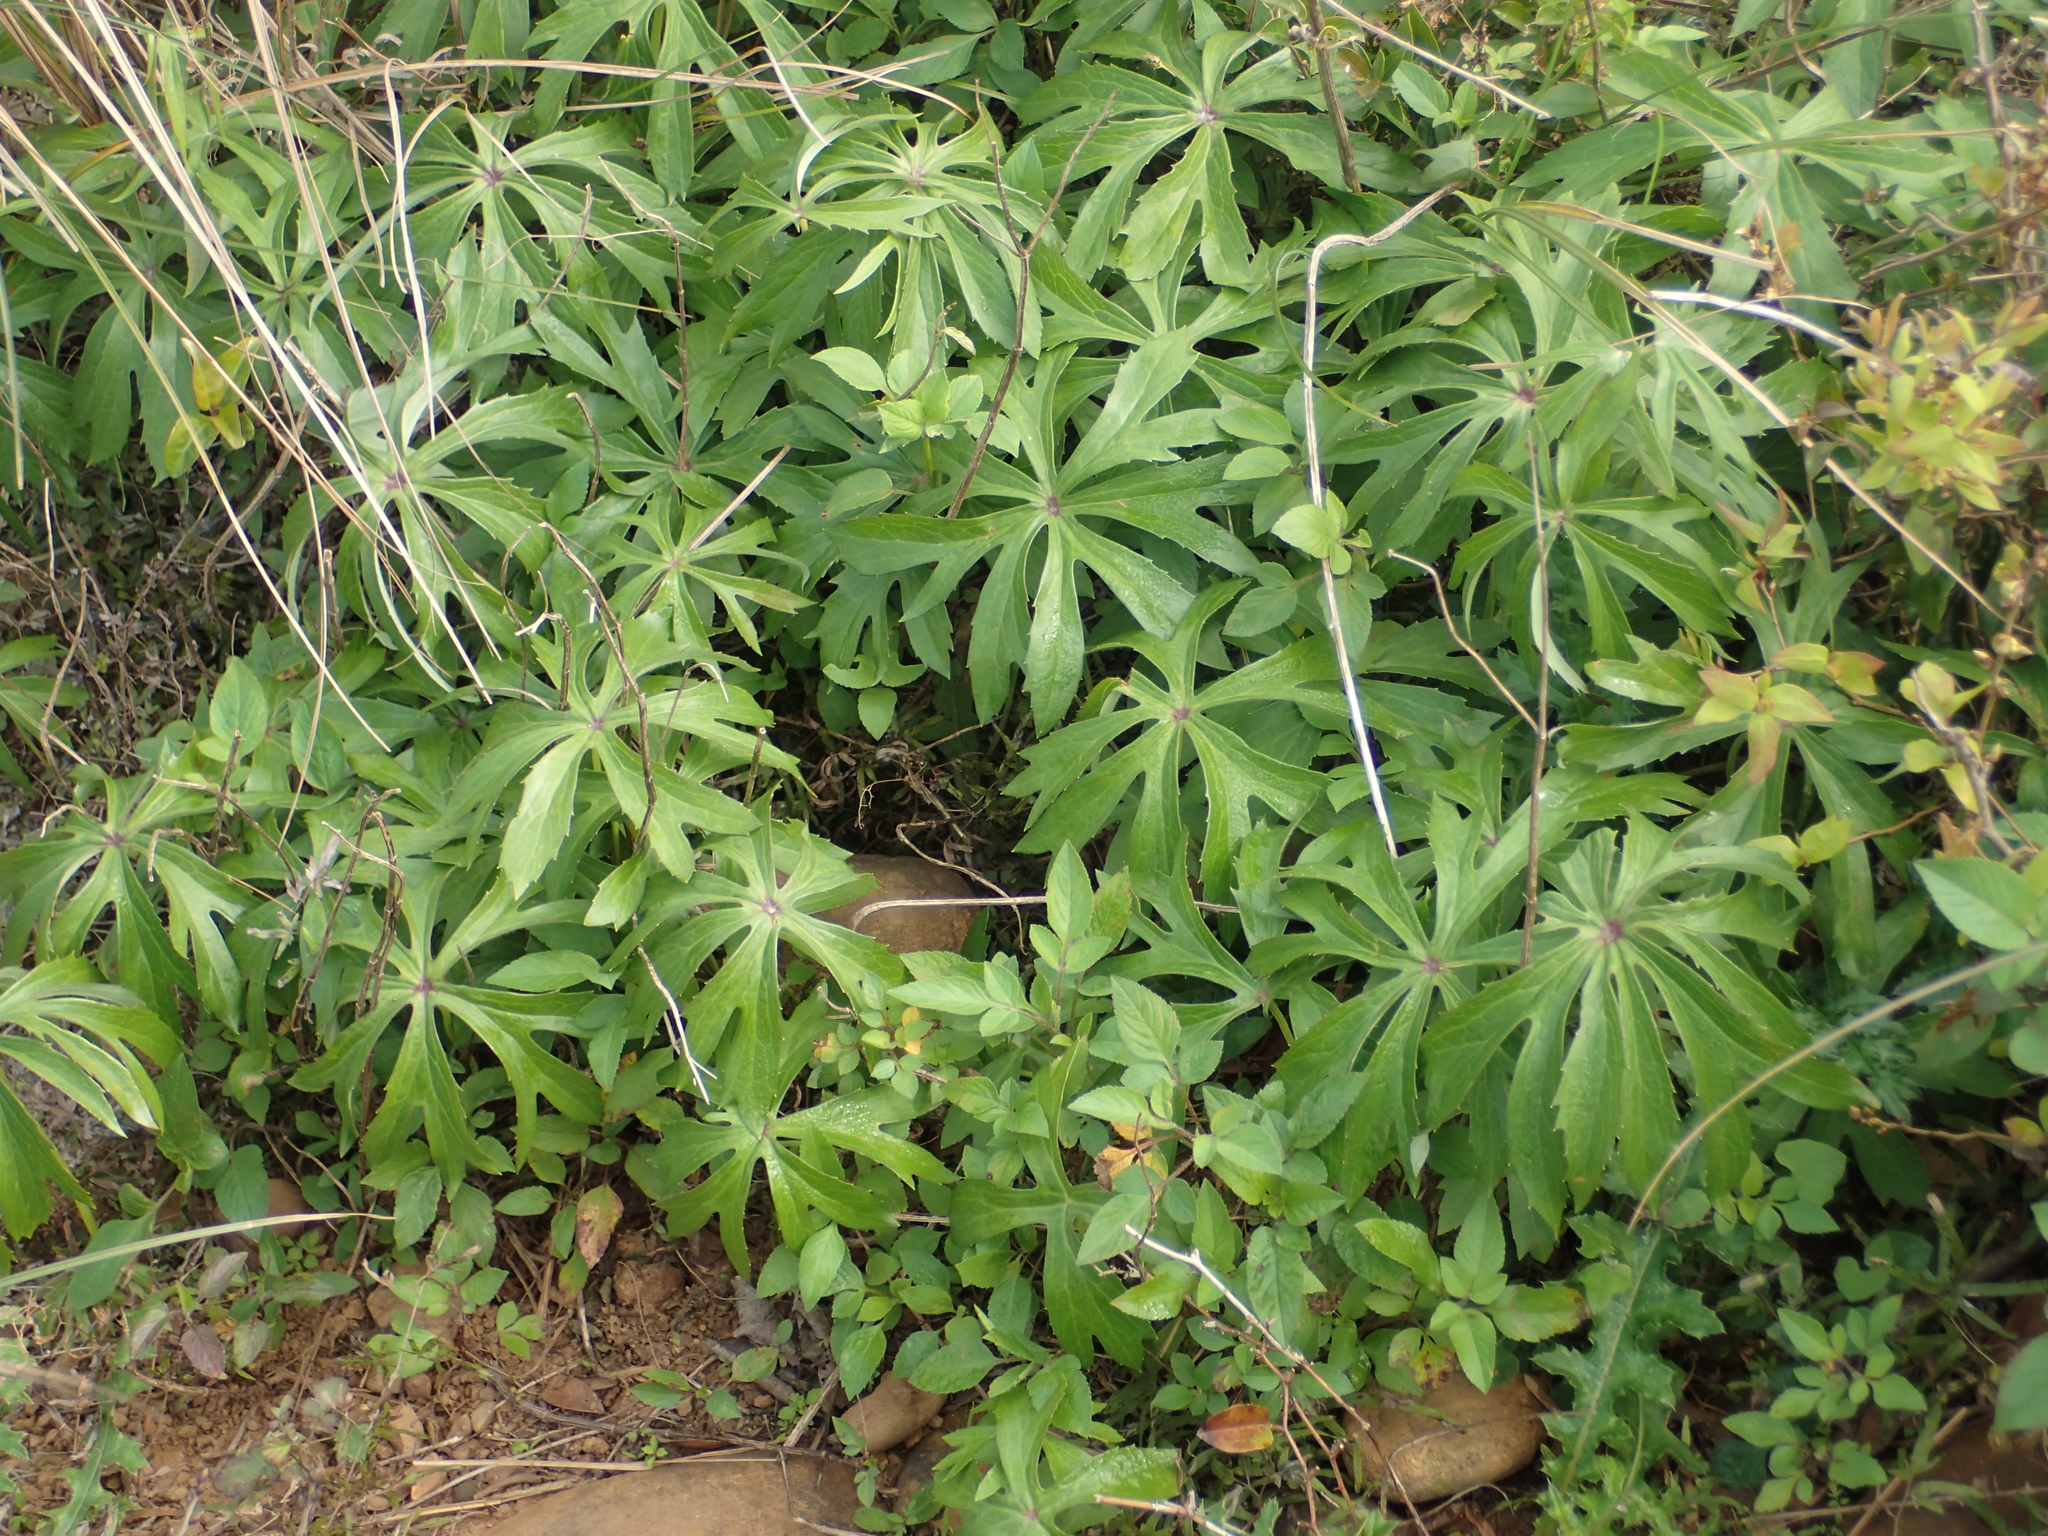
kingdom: Plantae
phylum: Tracheophyta
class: Magnoliopsida
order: Asterales
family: Asteraceae
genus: Syneilesis
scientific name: Syneilesis hayatae
